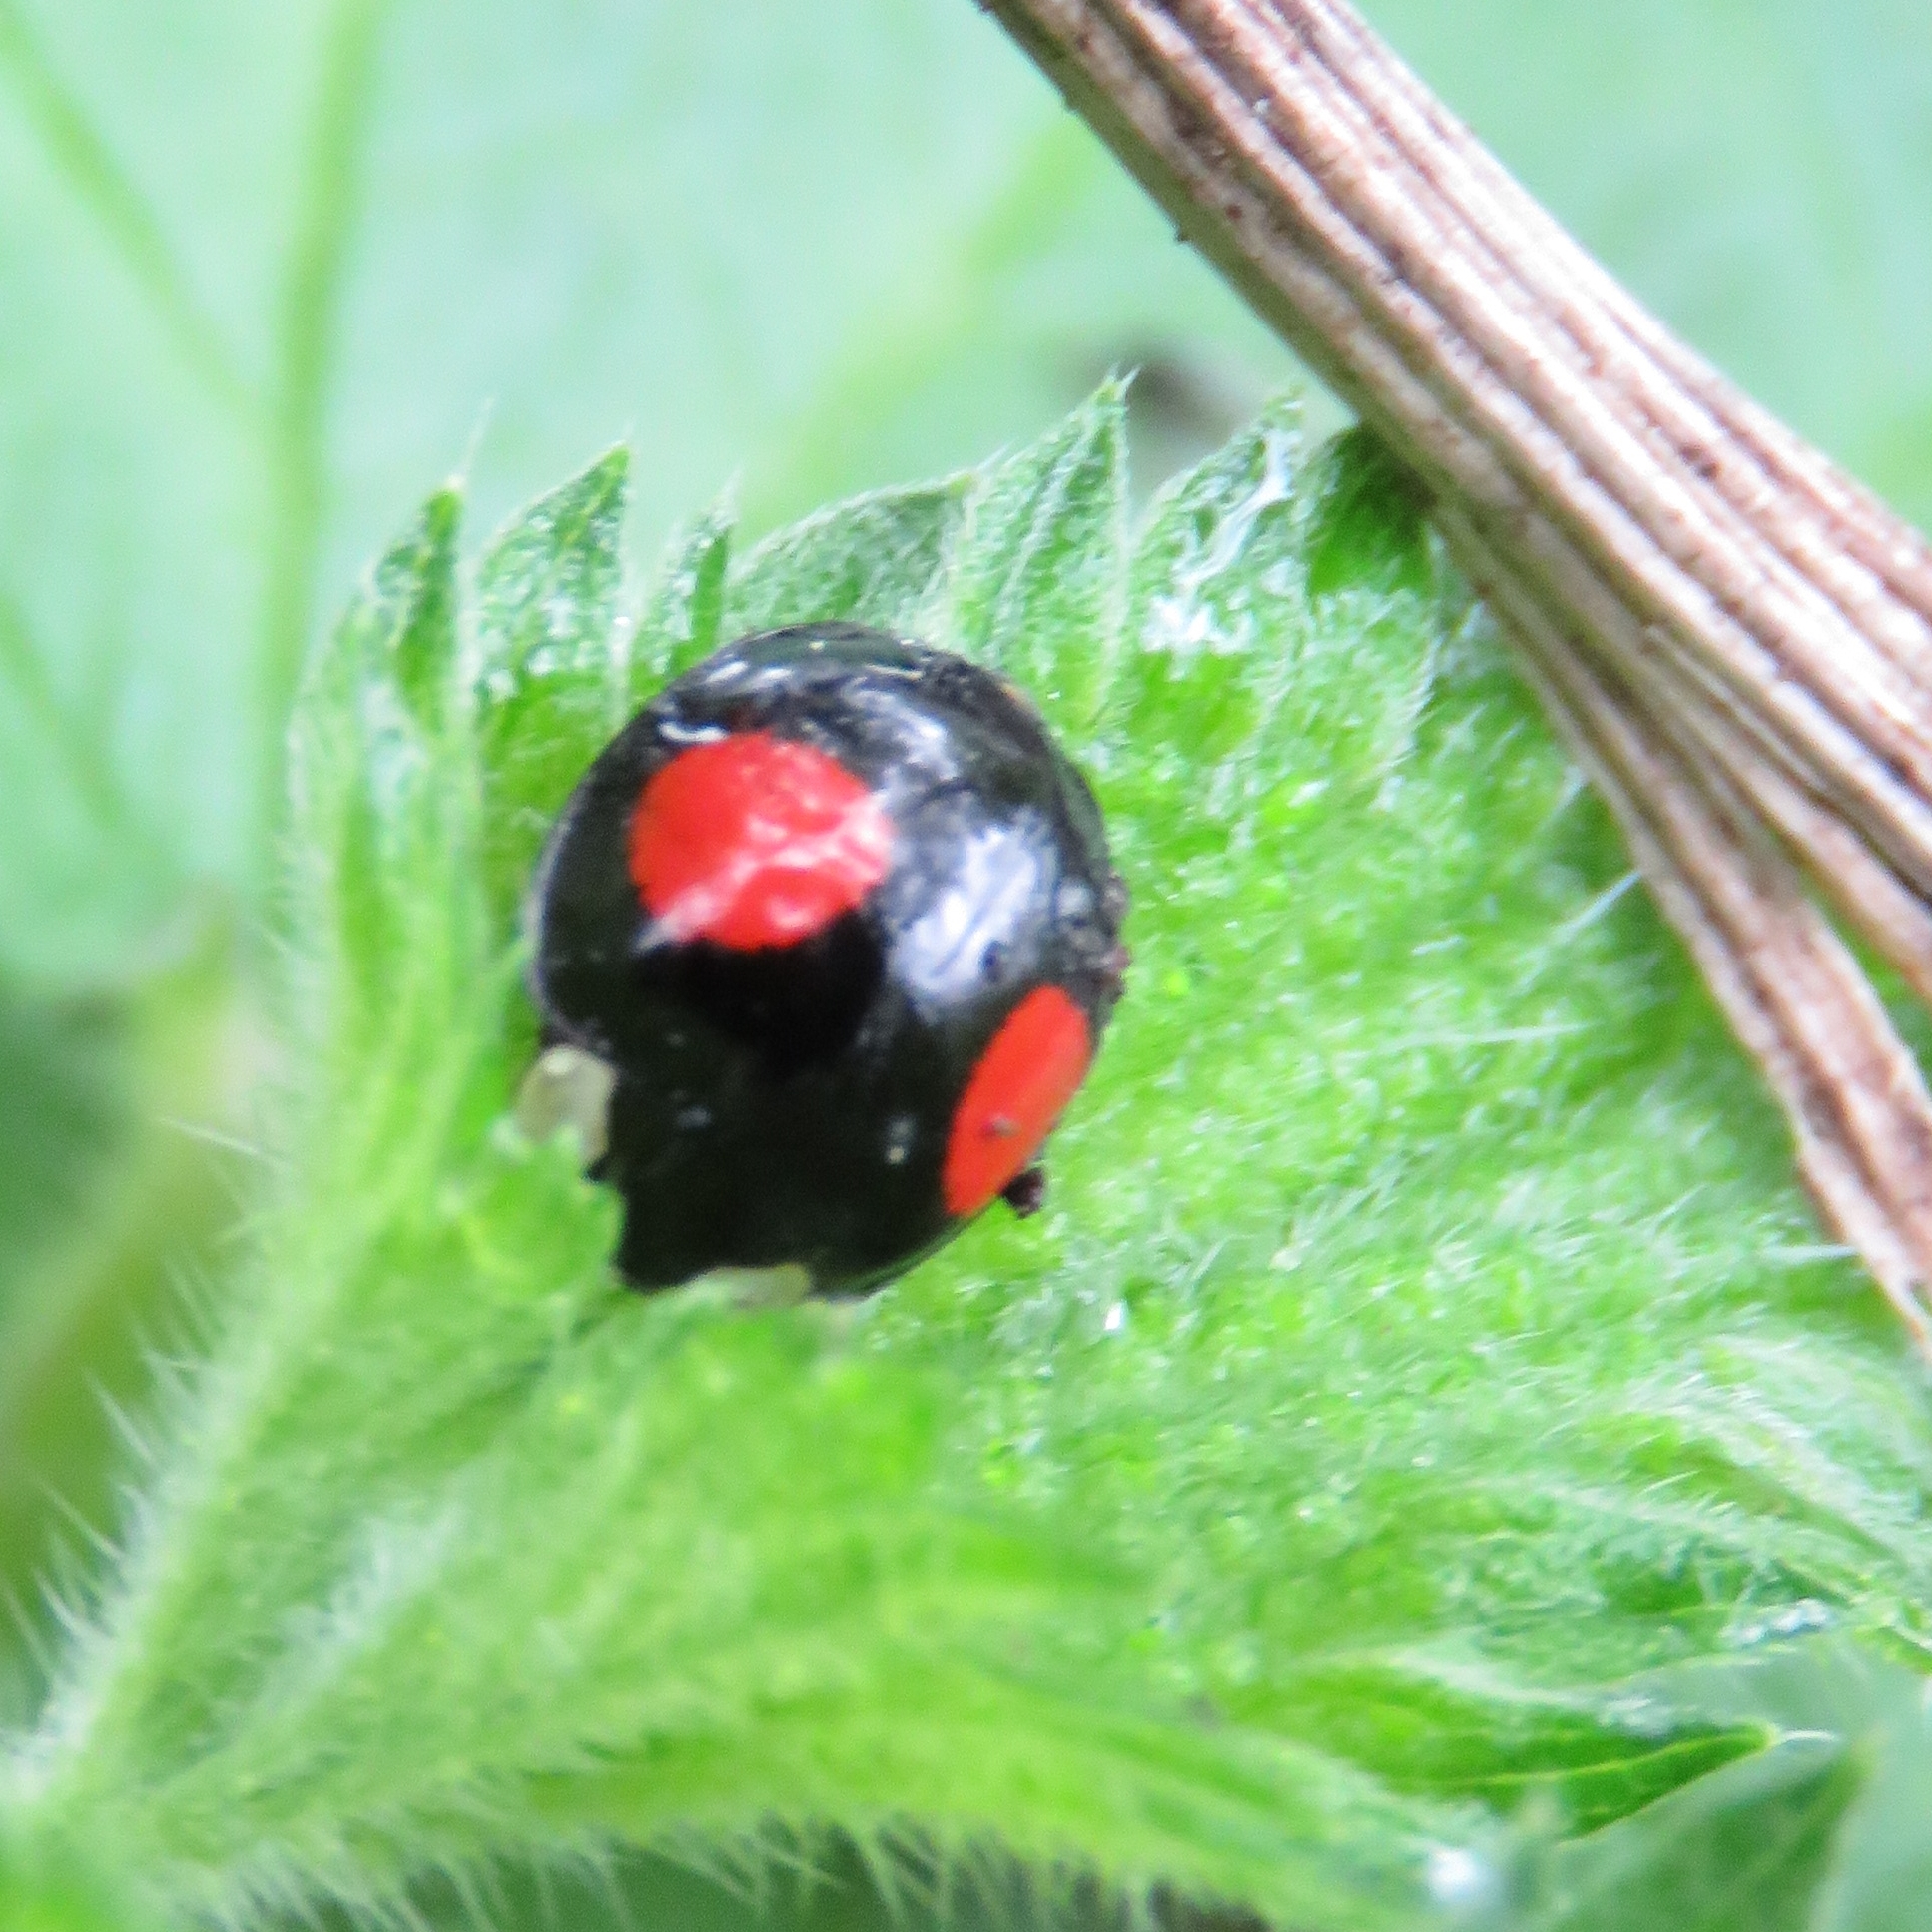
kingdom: Animalia
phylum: Arthropoda
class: Insecta
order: Coleoptera
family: Coccinellidae
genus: Harmonia
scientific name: Harmonia axyridis
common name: Harlequin ladybird
